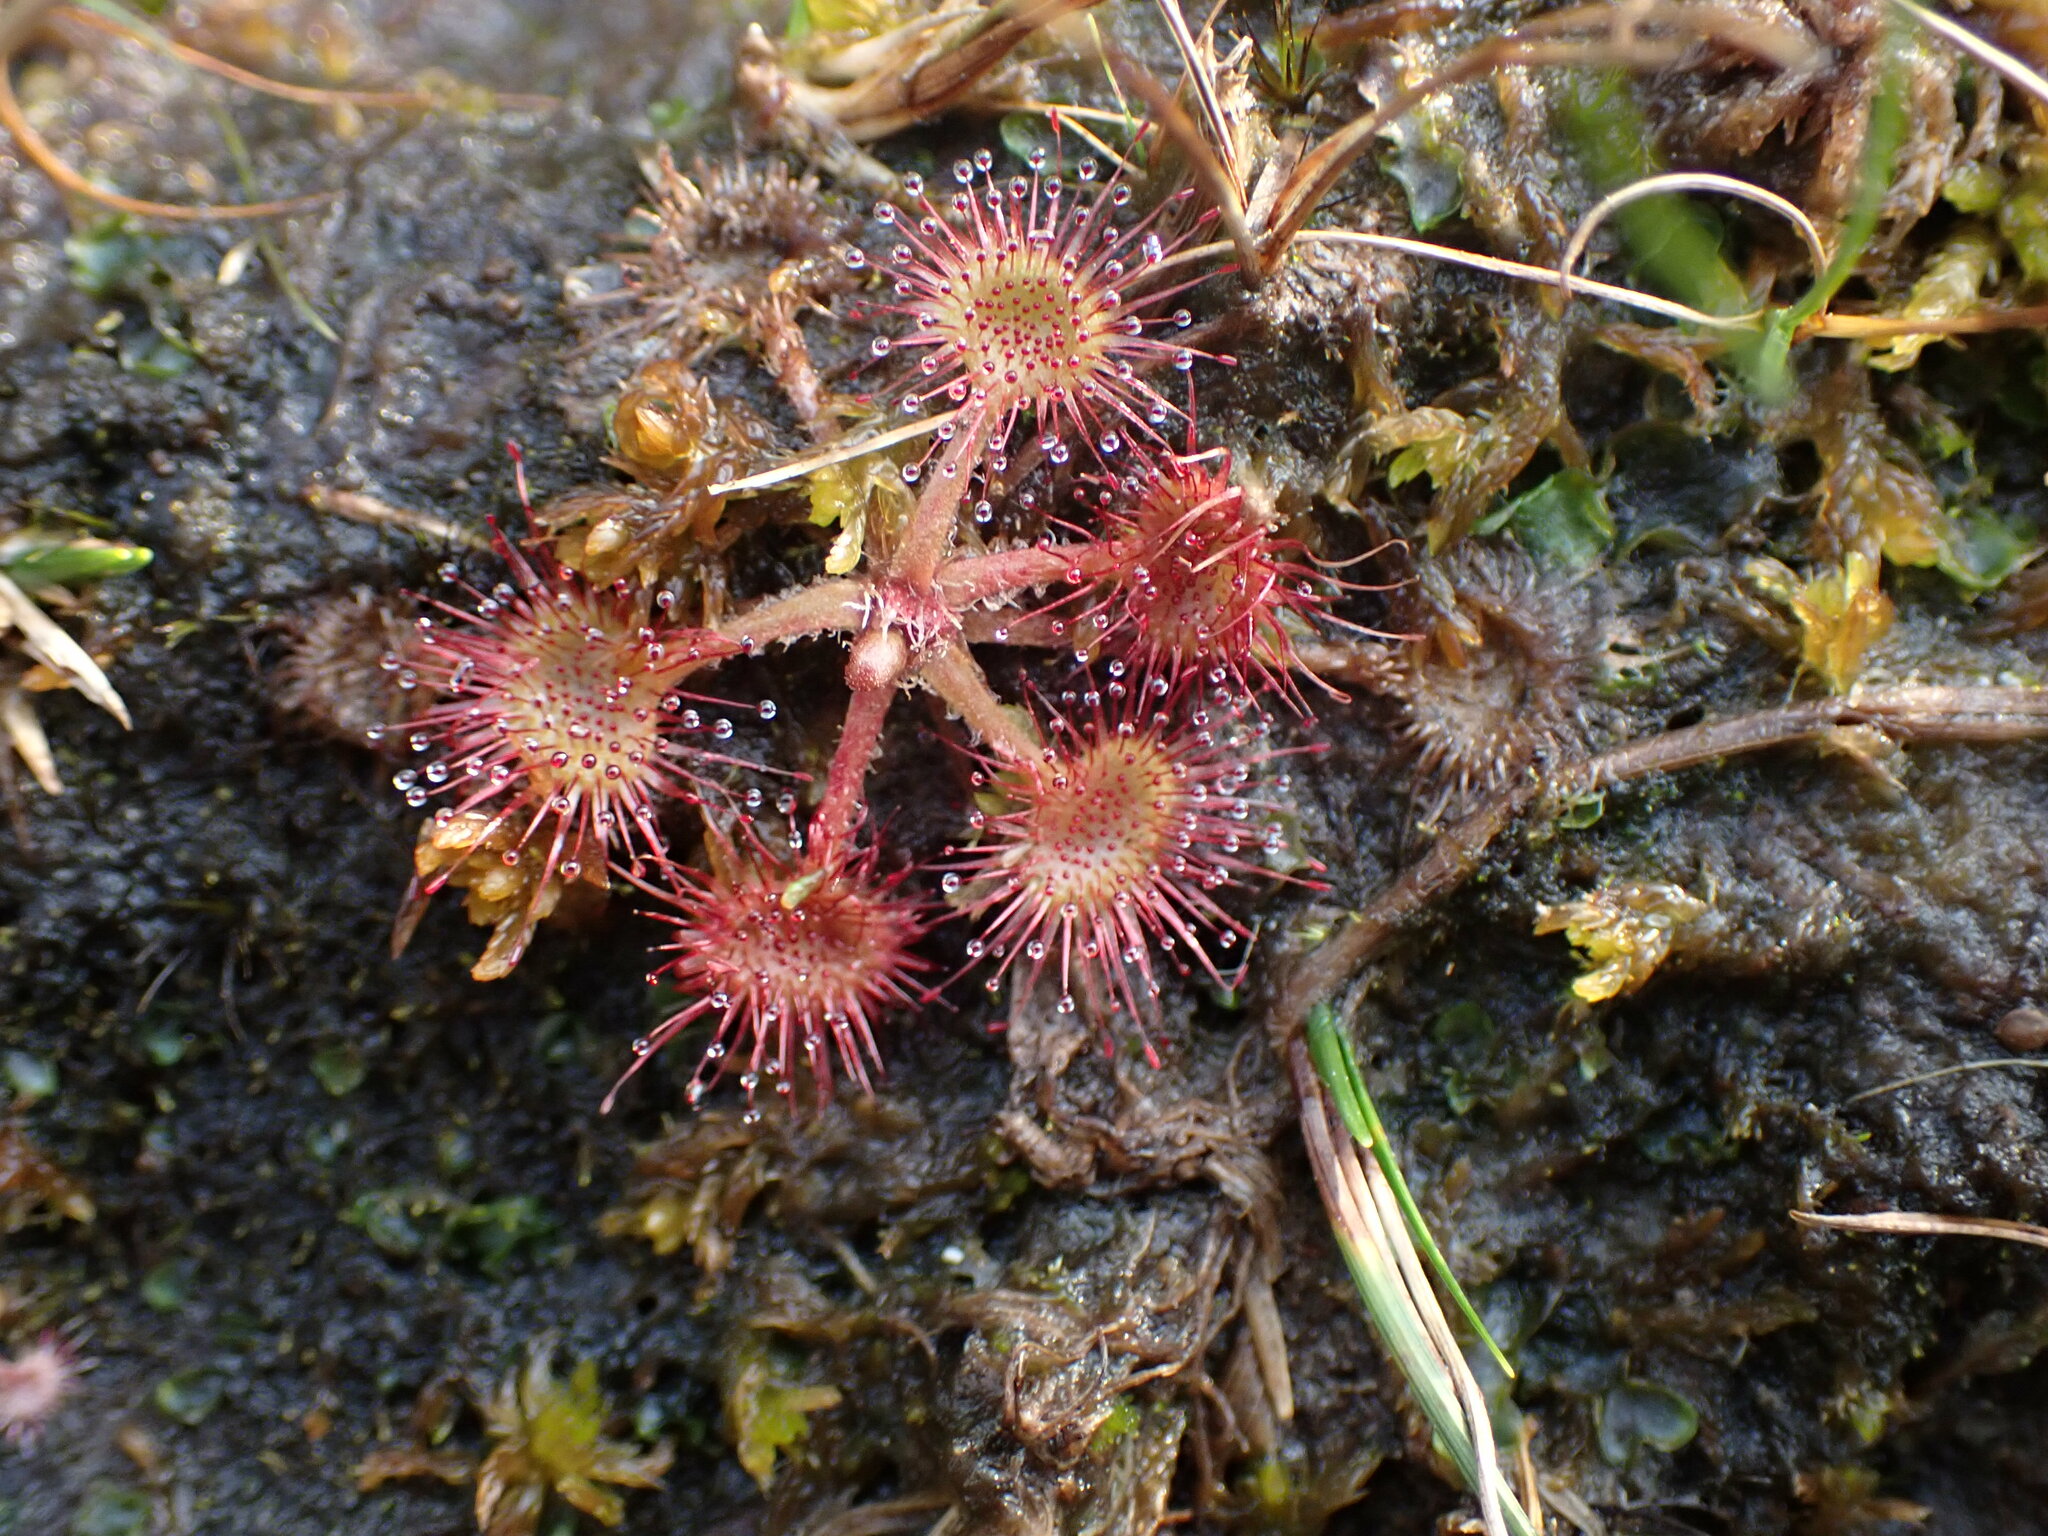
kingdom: Plantae
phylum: Tracheophyta
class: Magnoliopsida
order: Caryophyllales
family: Droseraceae
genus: Drosera
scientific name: Drosera rotundifolia
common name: Round-leaved sundew
